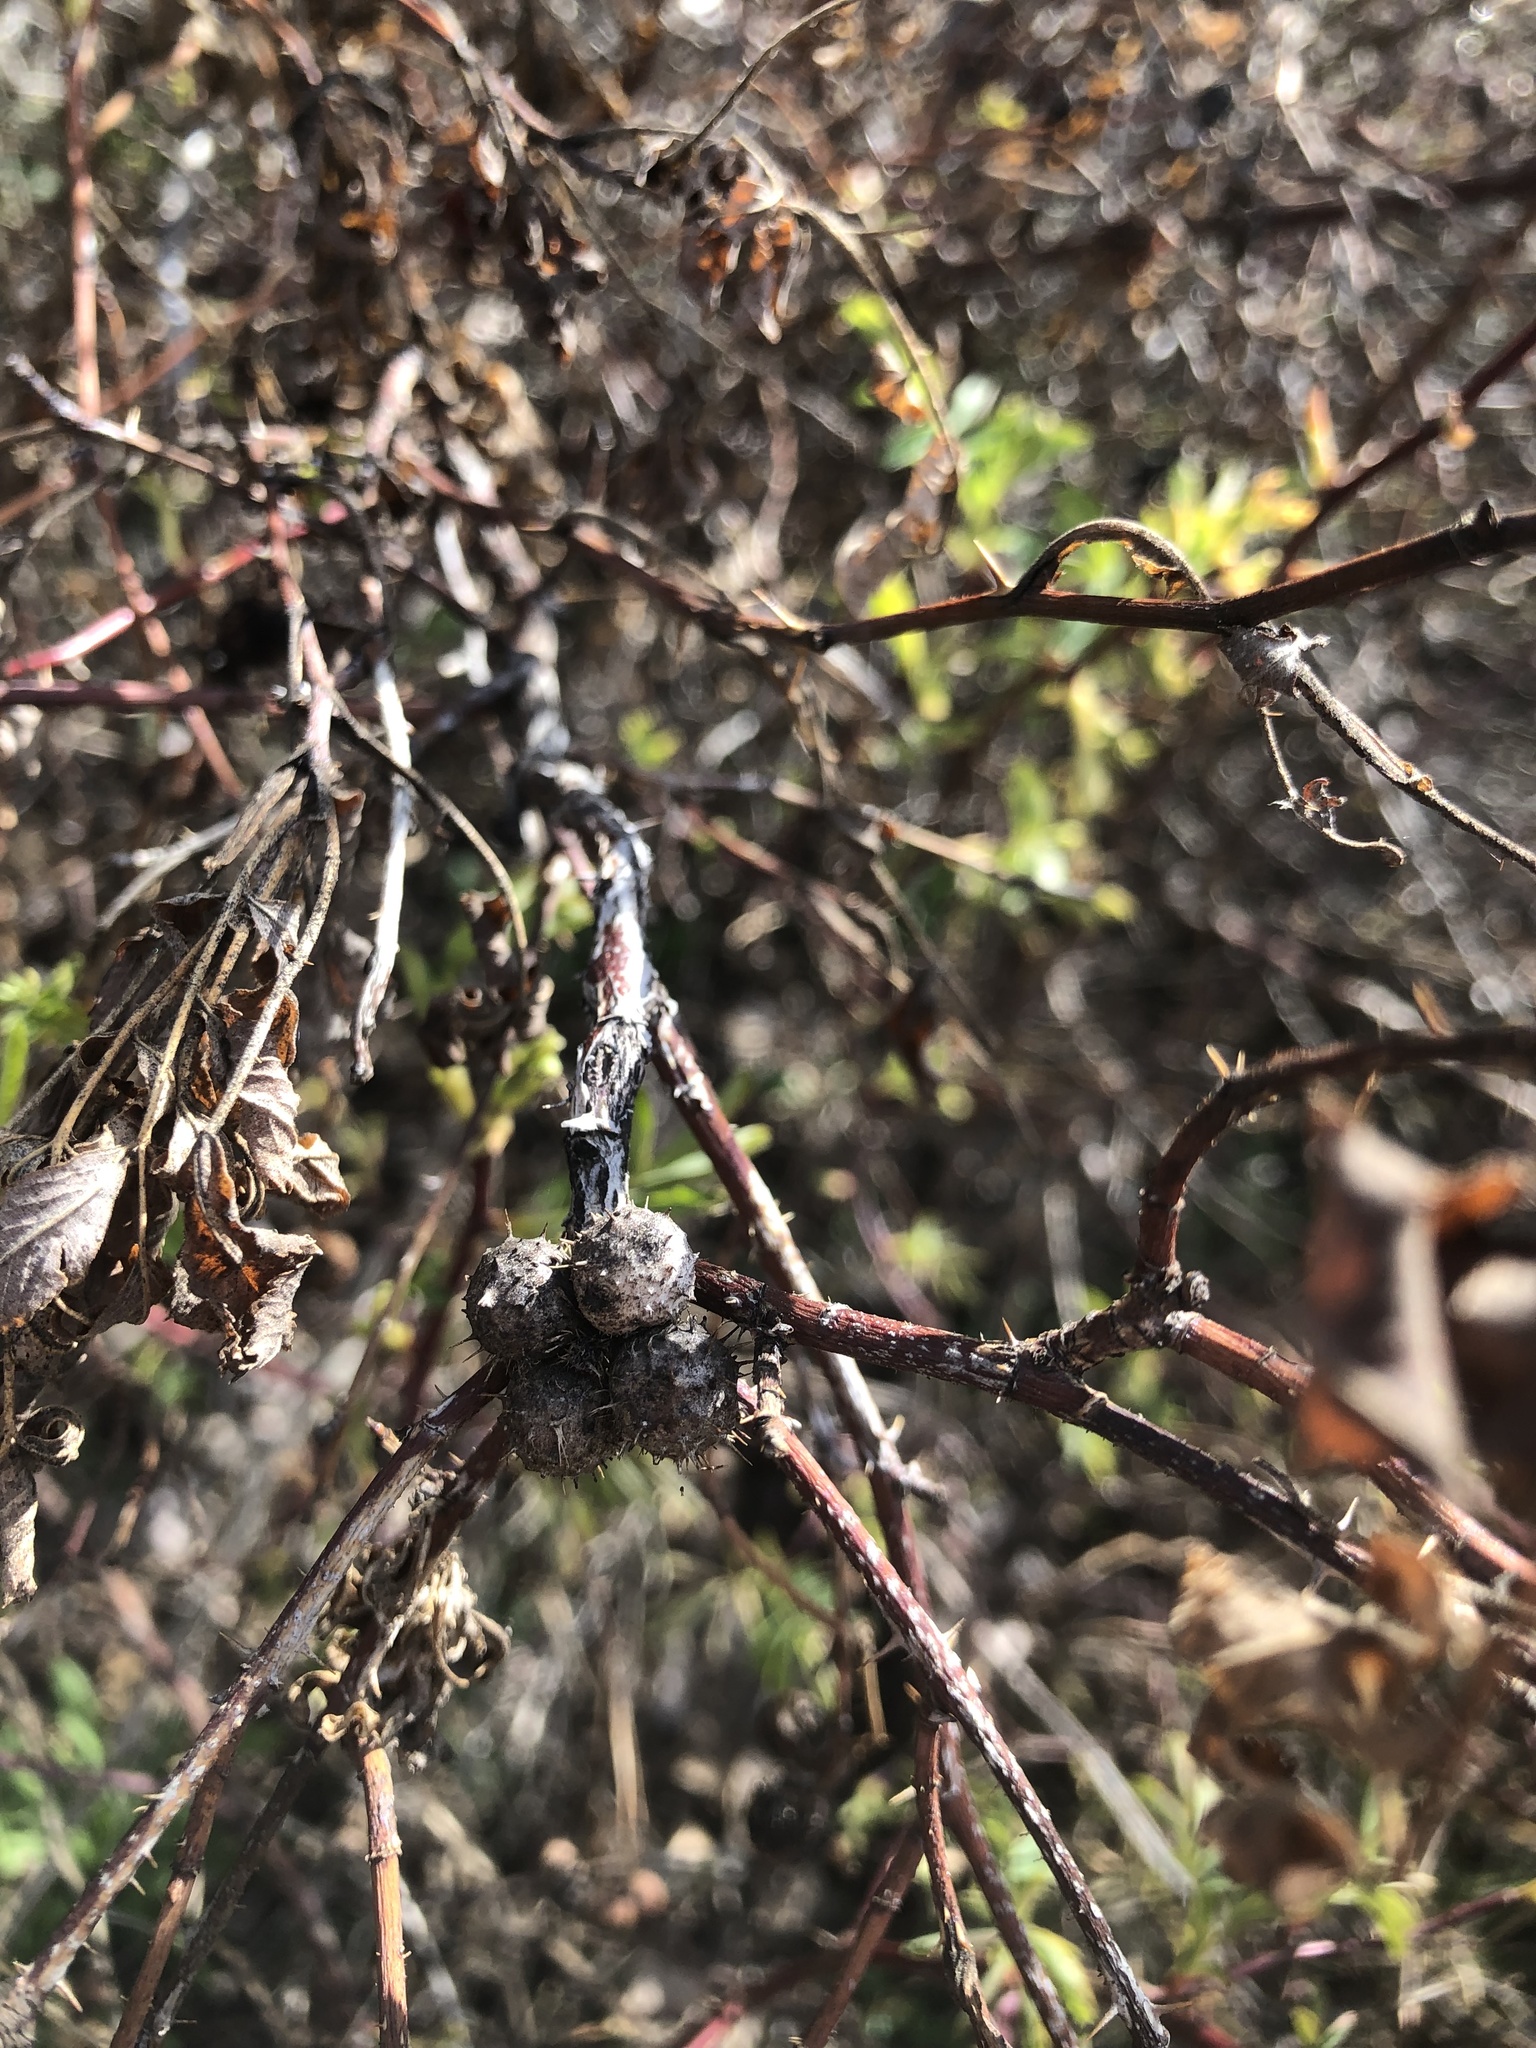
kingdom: Animalia
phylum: Arthropoda
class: Insecta
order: Hymenoptera
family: Cynipidae
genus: Diplolepis
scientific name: Diplolepis bicolor
